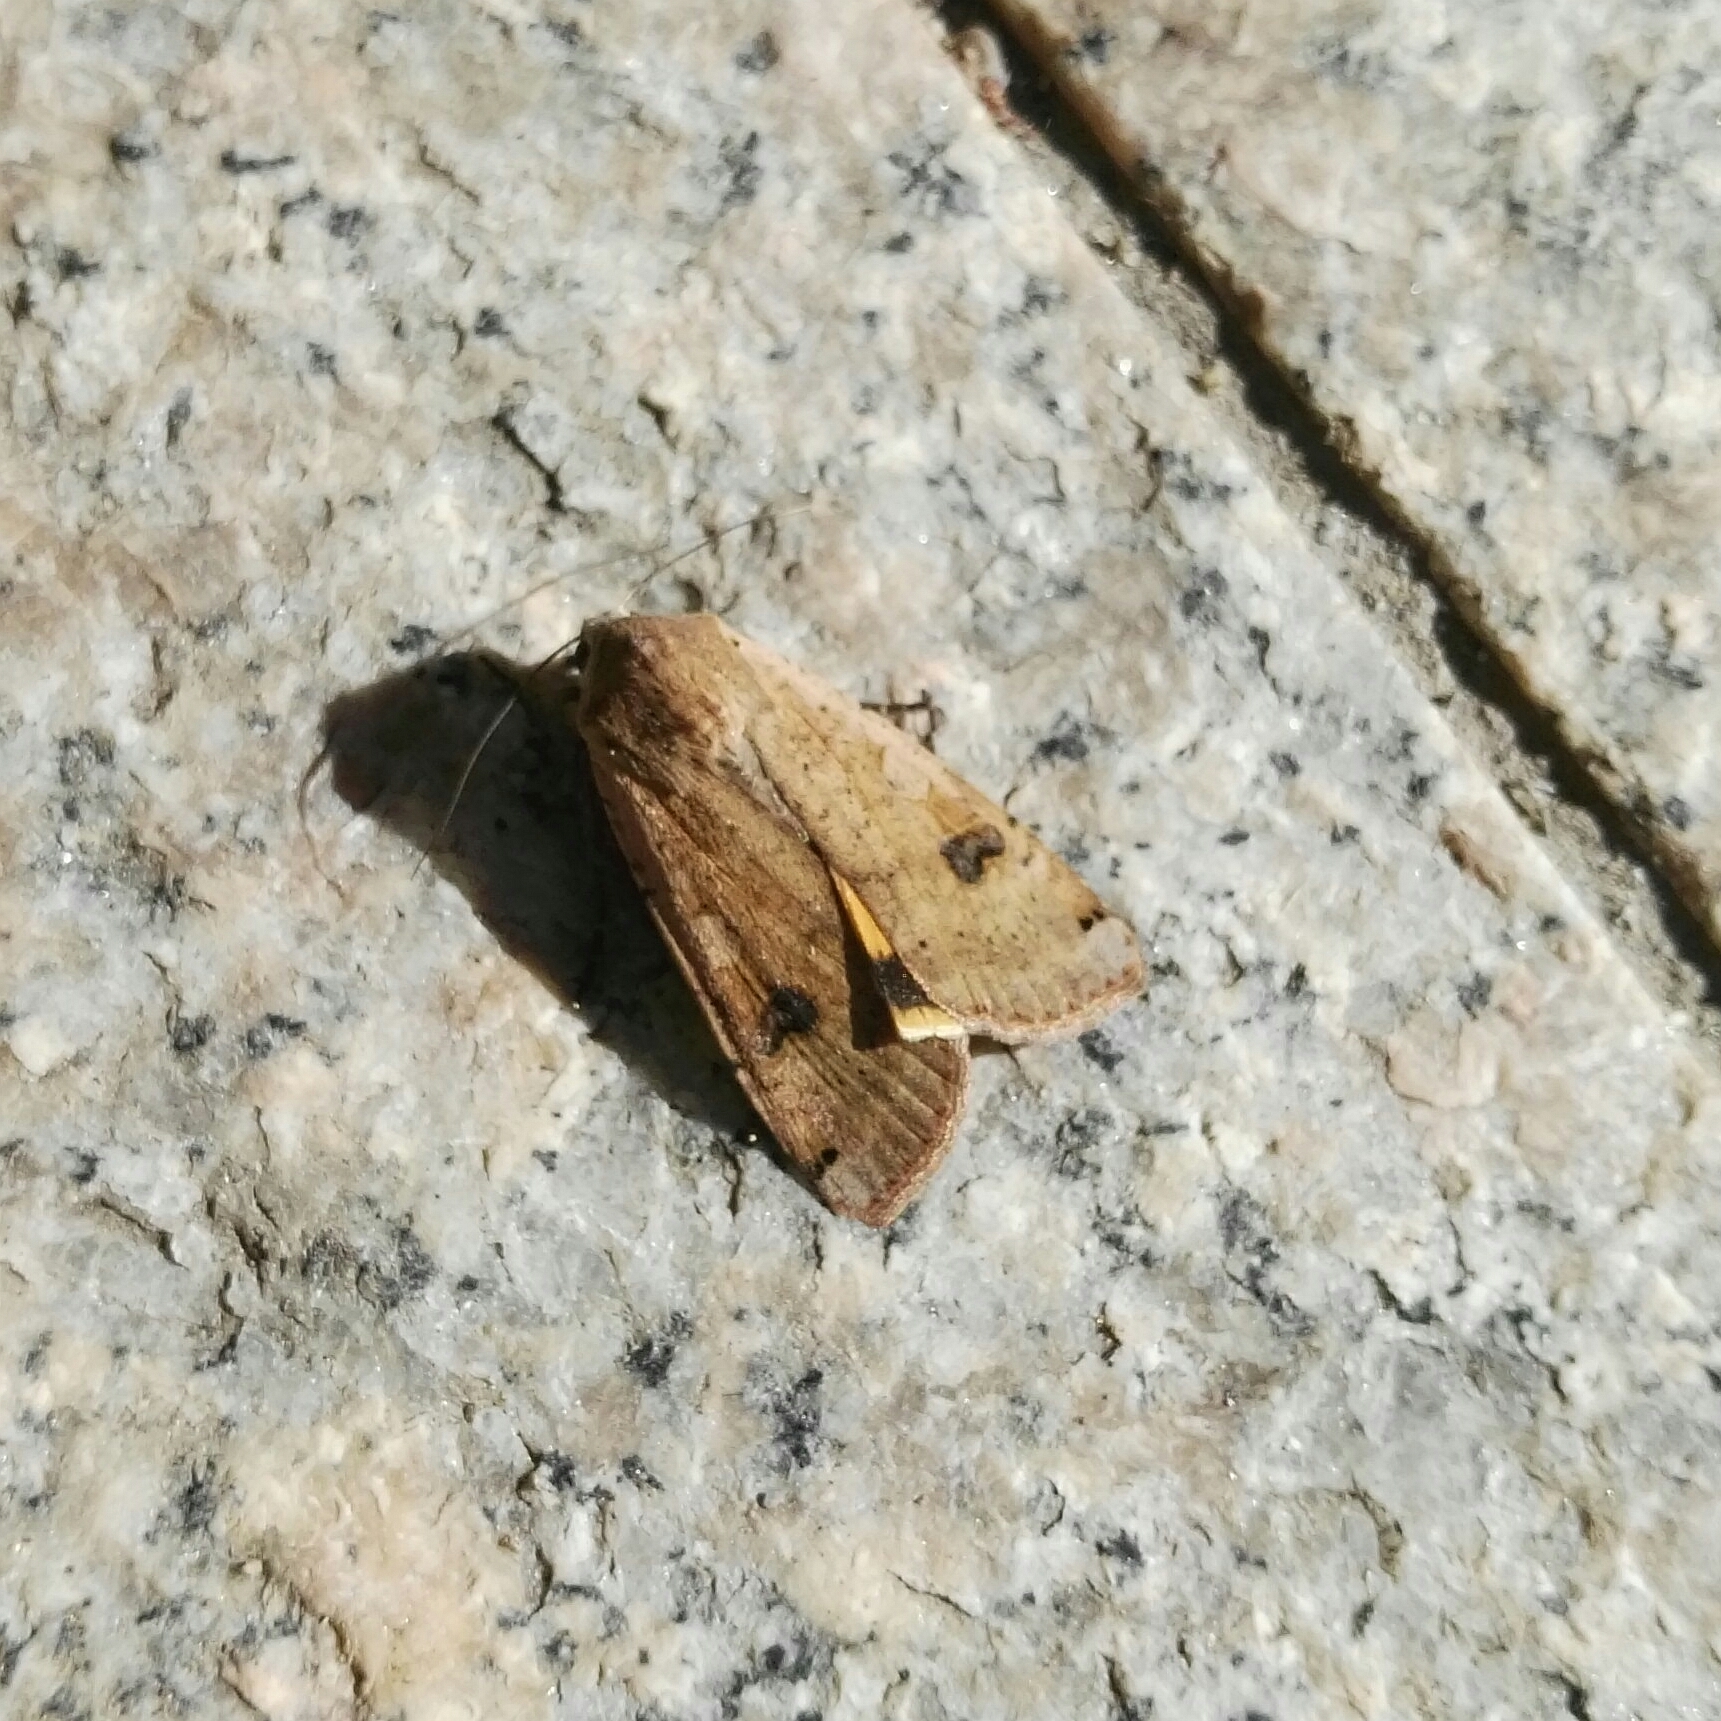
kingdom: Animalia
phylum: Arthropoda
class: Insecta
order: Lepidoptera
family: Noctuidae
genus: Noctua
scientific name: Noctua pronuba
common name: Large yellow underwing
